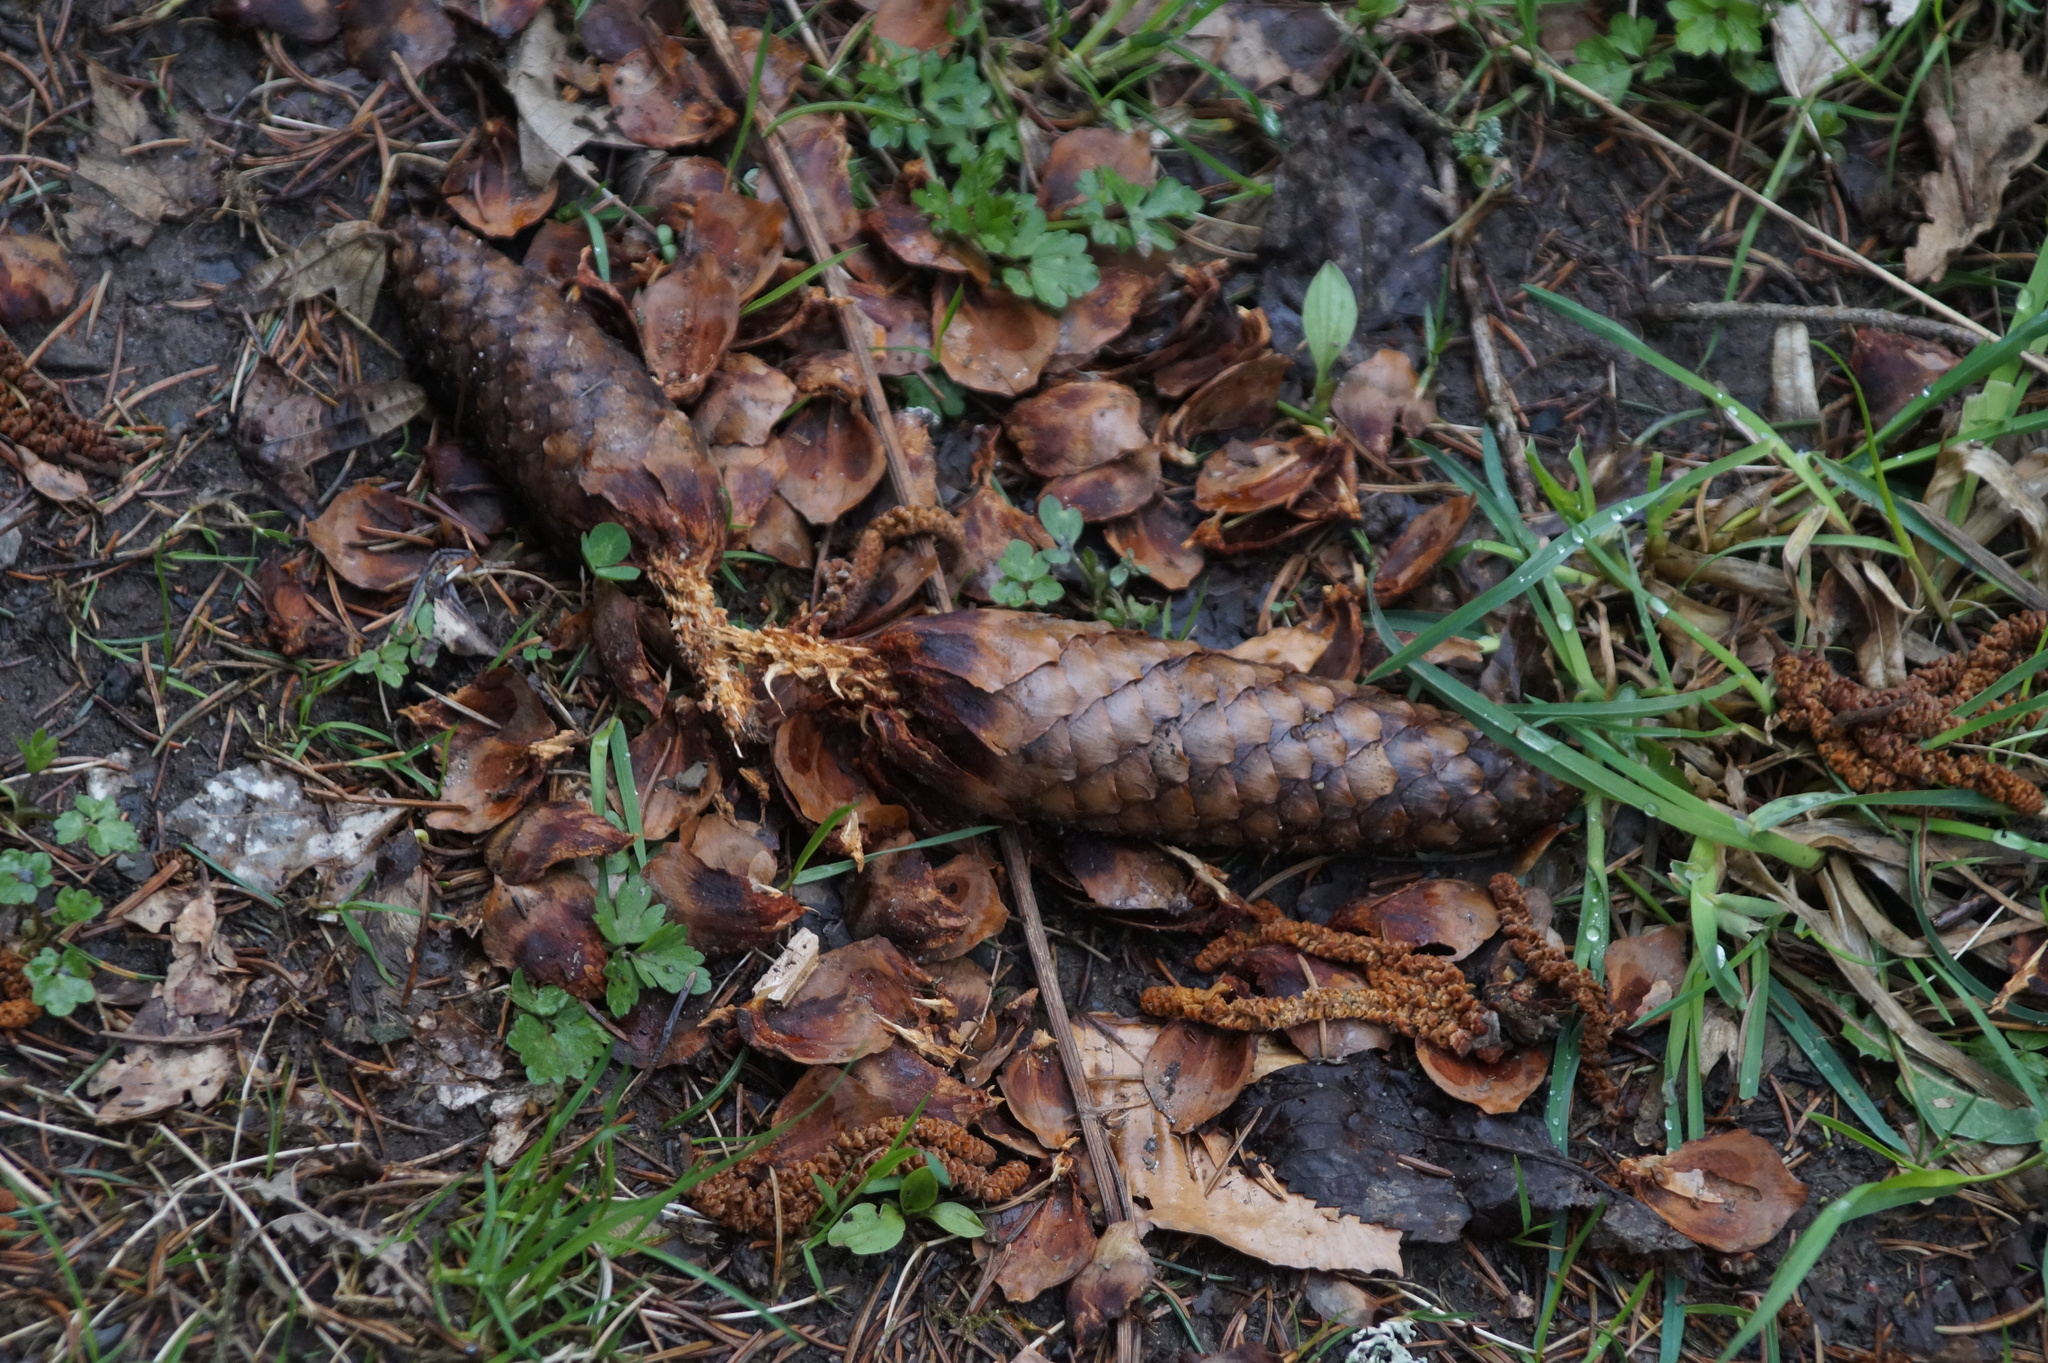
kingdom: Plantae
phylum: Tracheophyta
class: Pinopsida
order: Pinales
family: Pinaceae
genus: Picea
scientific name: Picea abies
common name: Norway spruce
